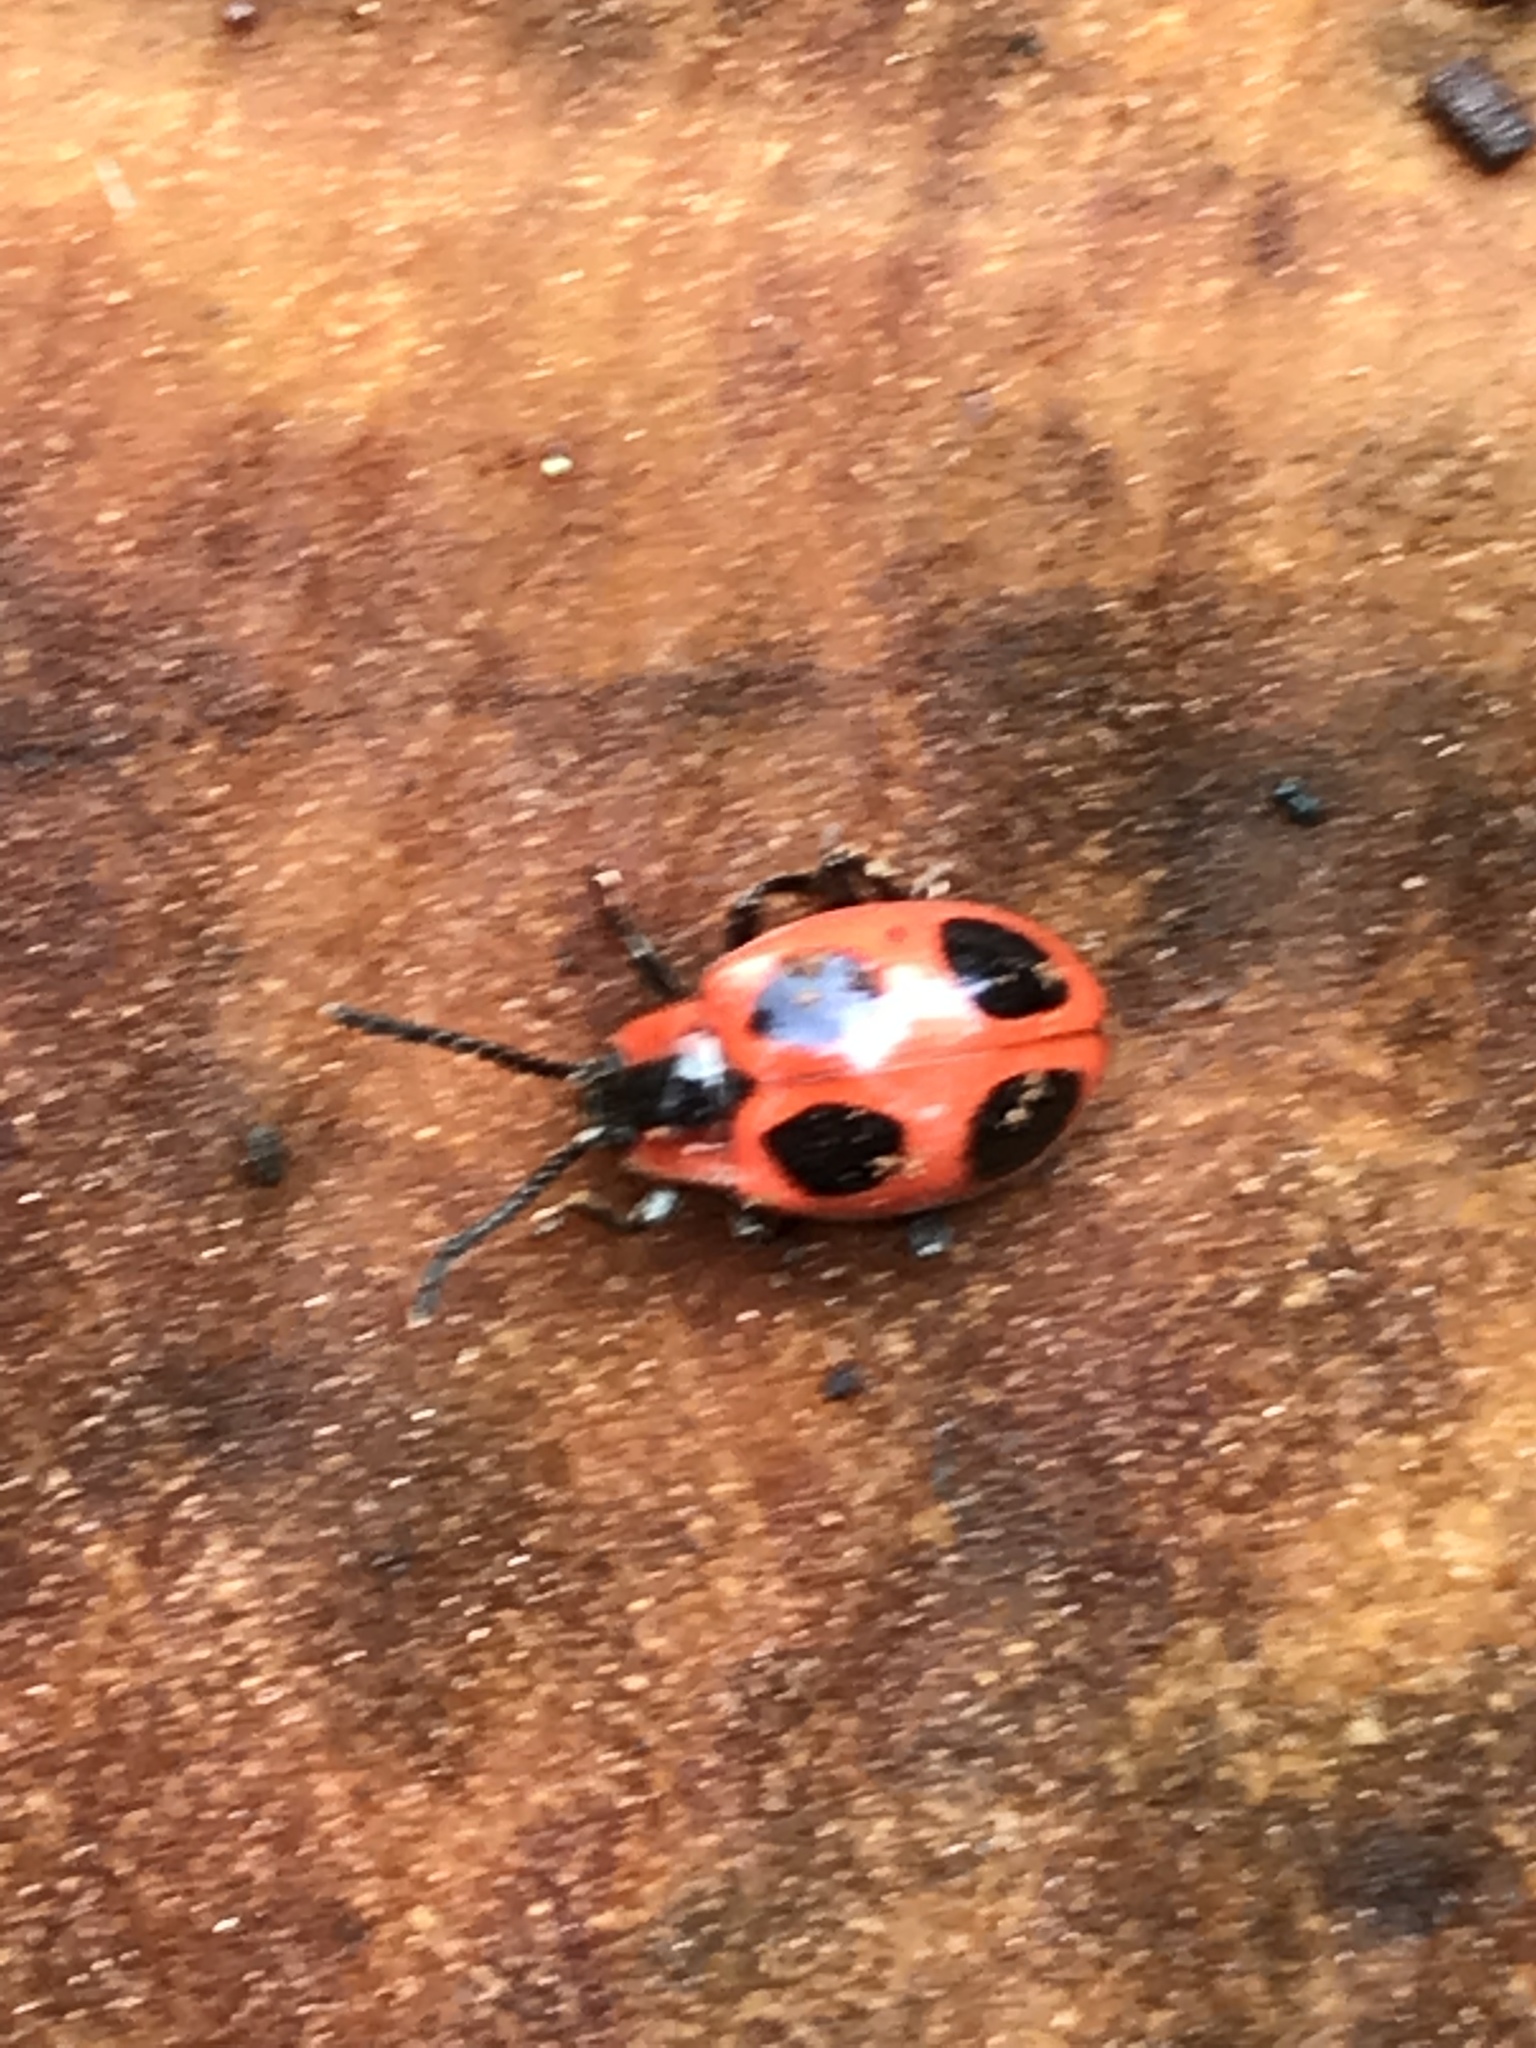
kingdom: Animalia
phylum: Arthropoda
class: Insecta
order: Coleoptera
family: Endomychidae
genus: Endomychus
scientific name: Endomychus coccineus
